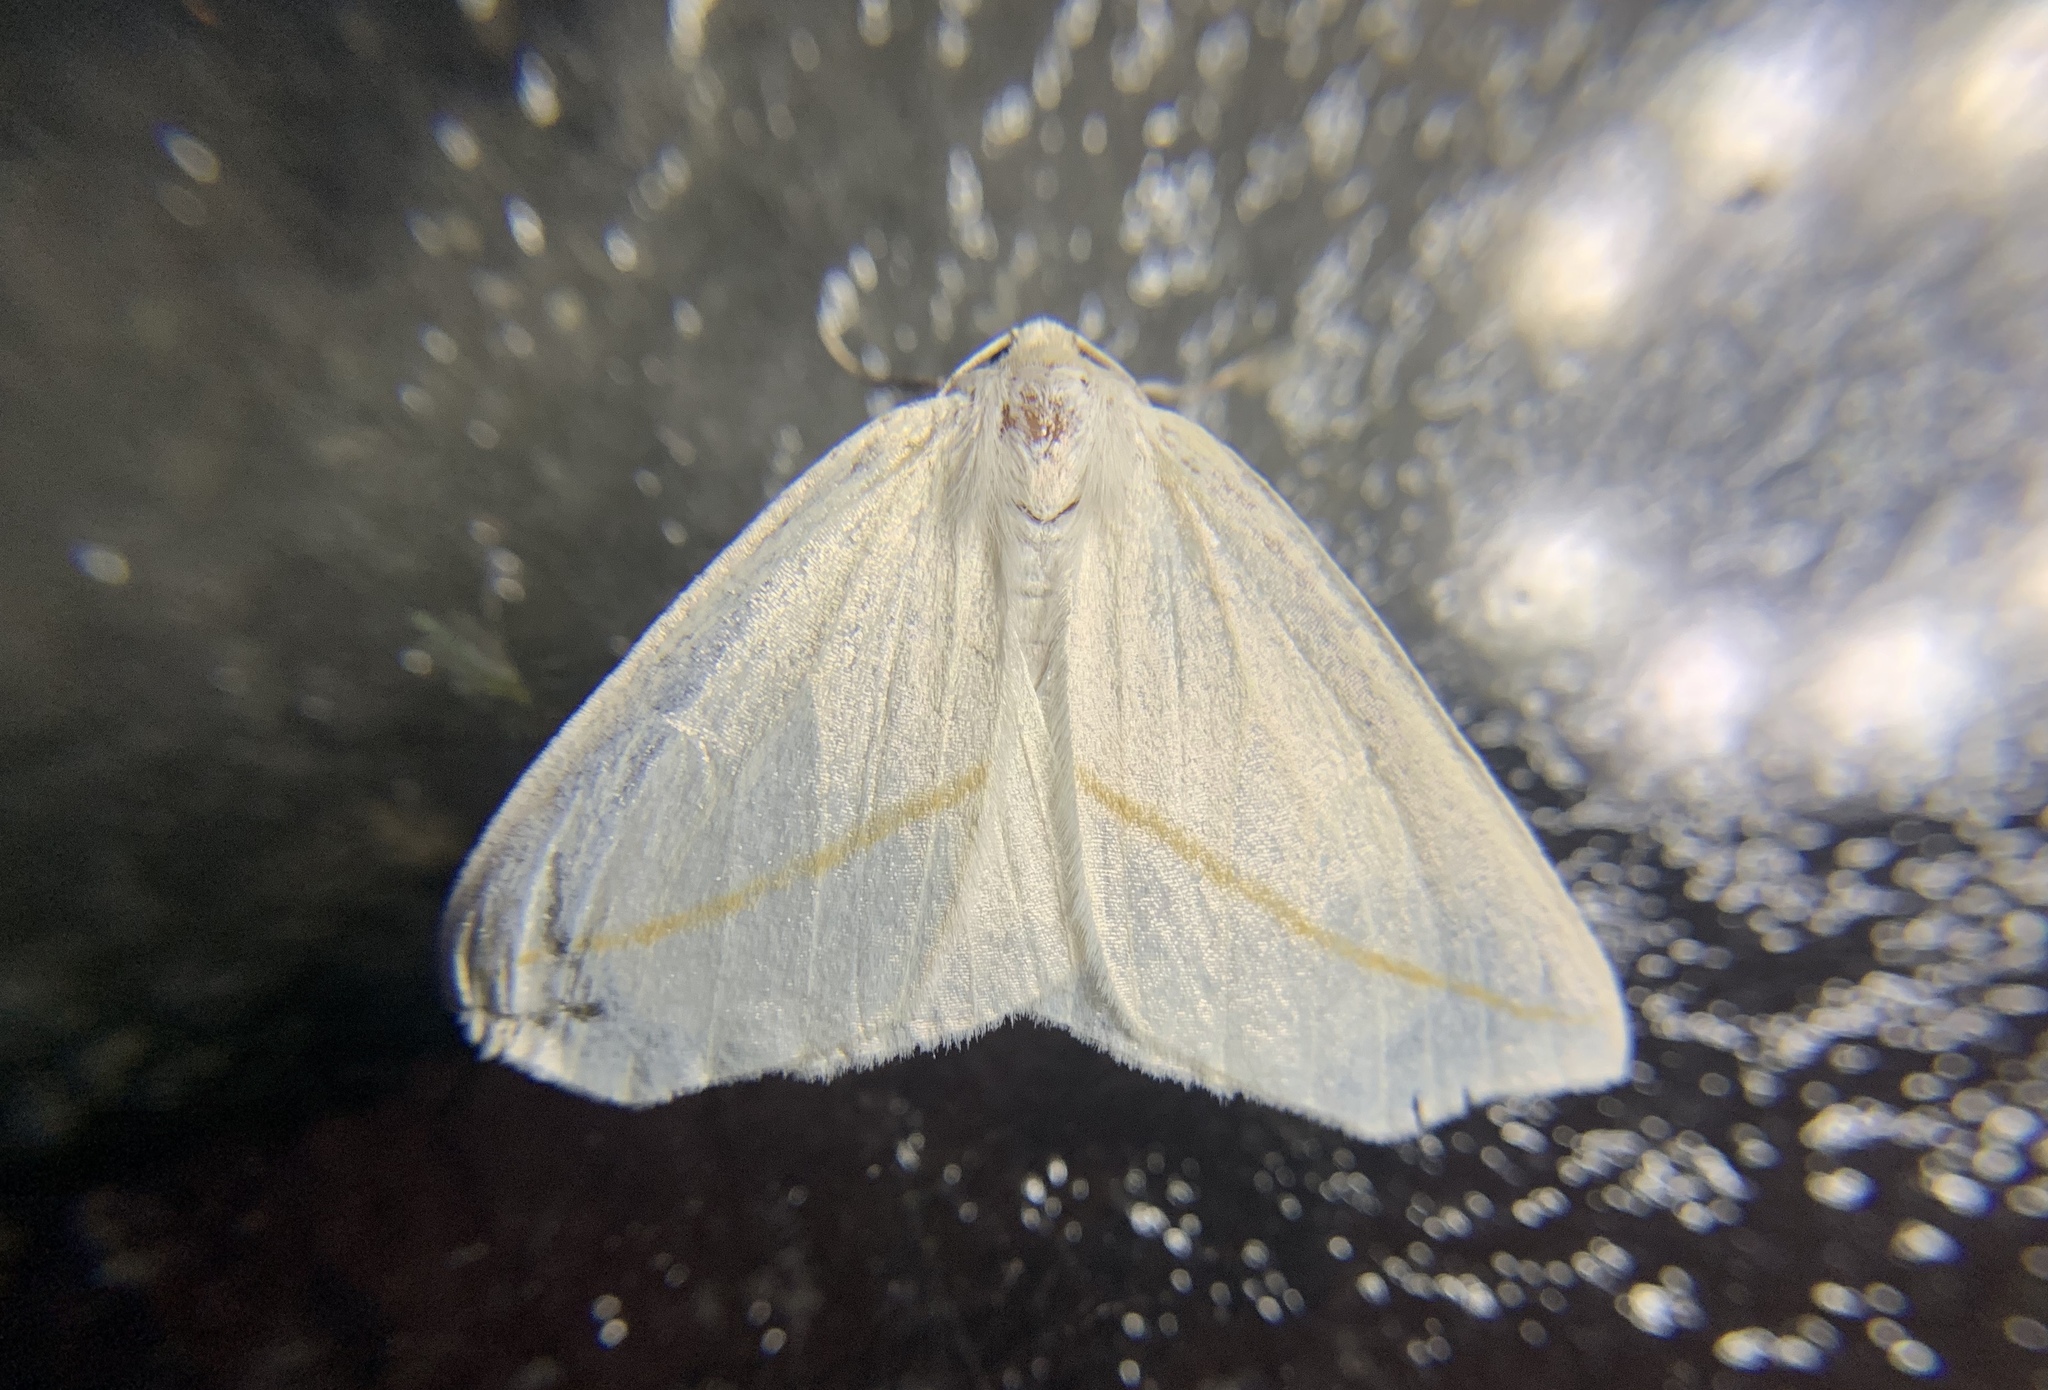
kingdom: Animalia
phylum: Arthropoda
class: Insecta
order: Lepidoptera
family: Geometridae
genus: Tetracis
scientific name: Tetracis cachexiata
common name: White slant-line
